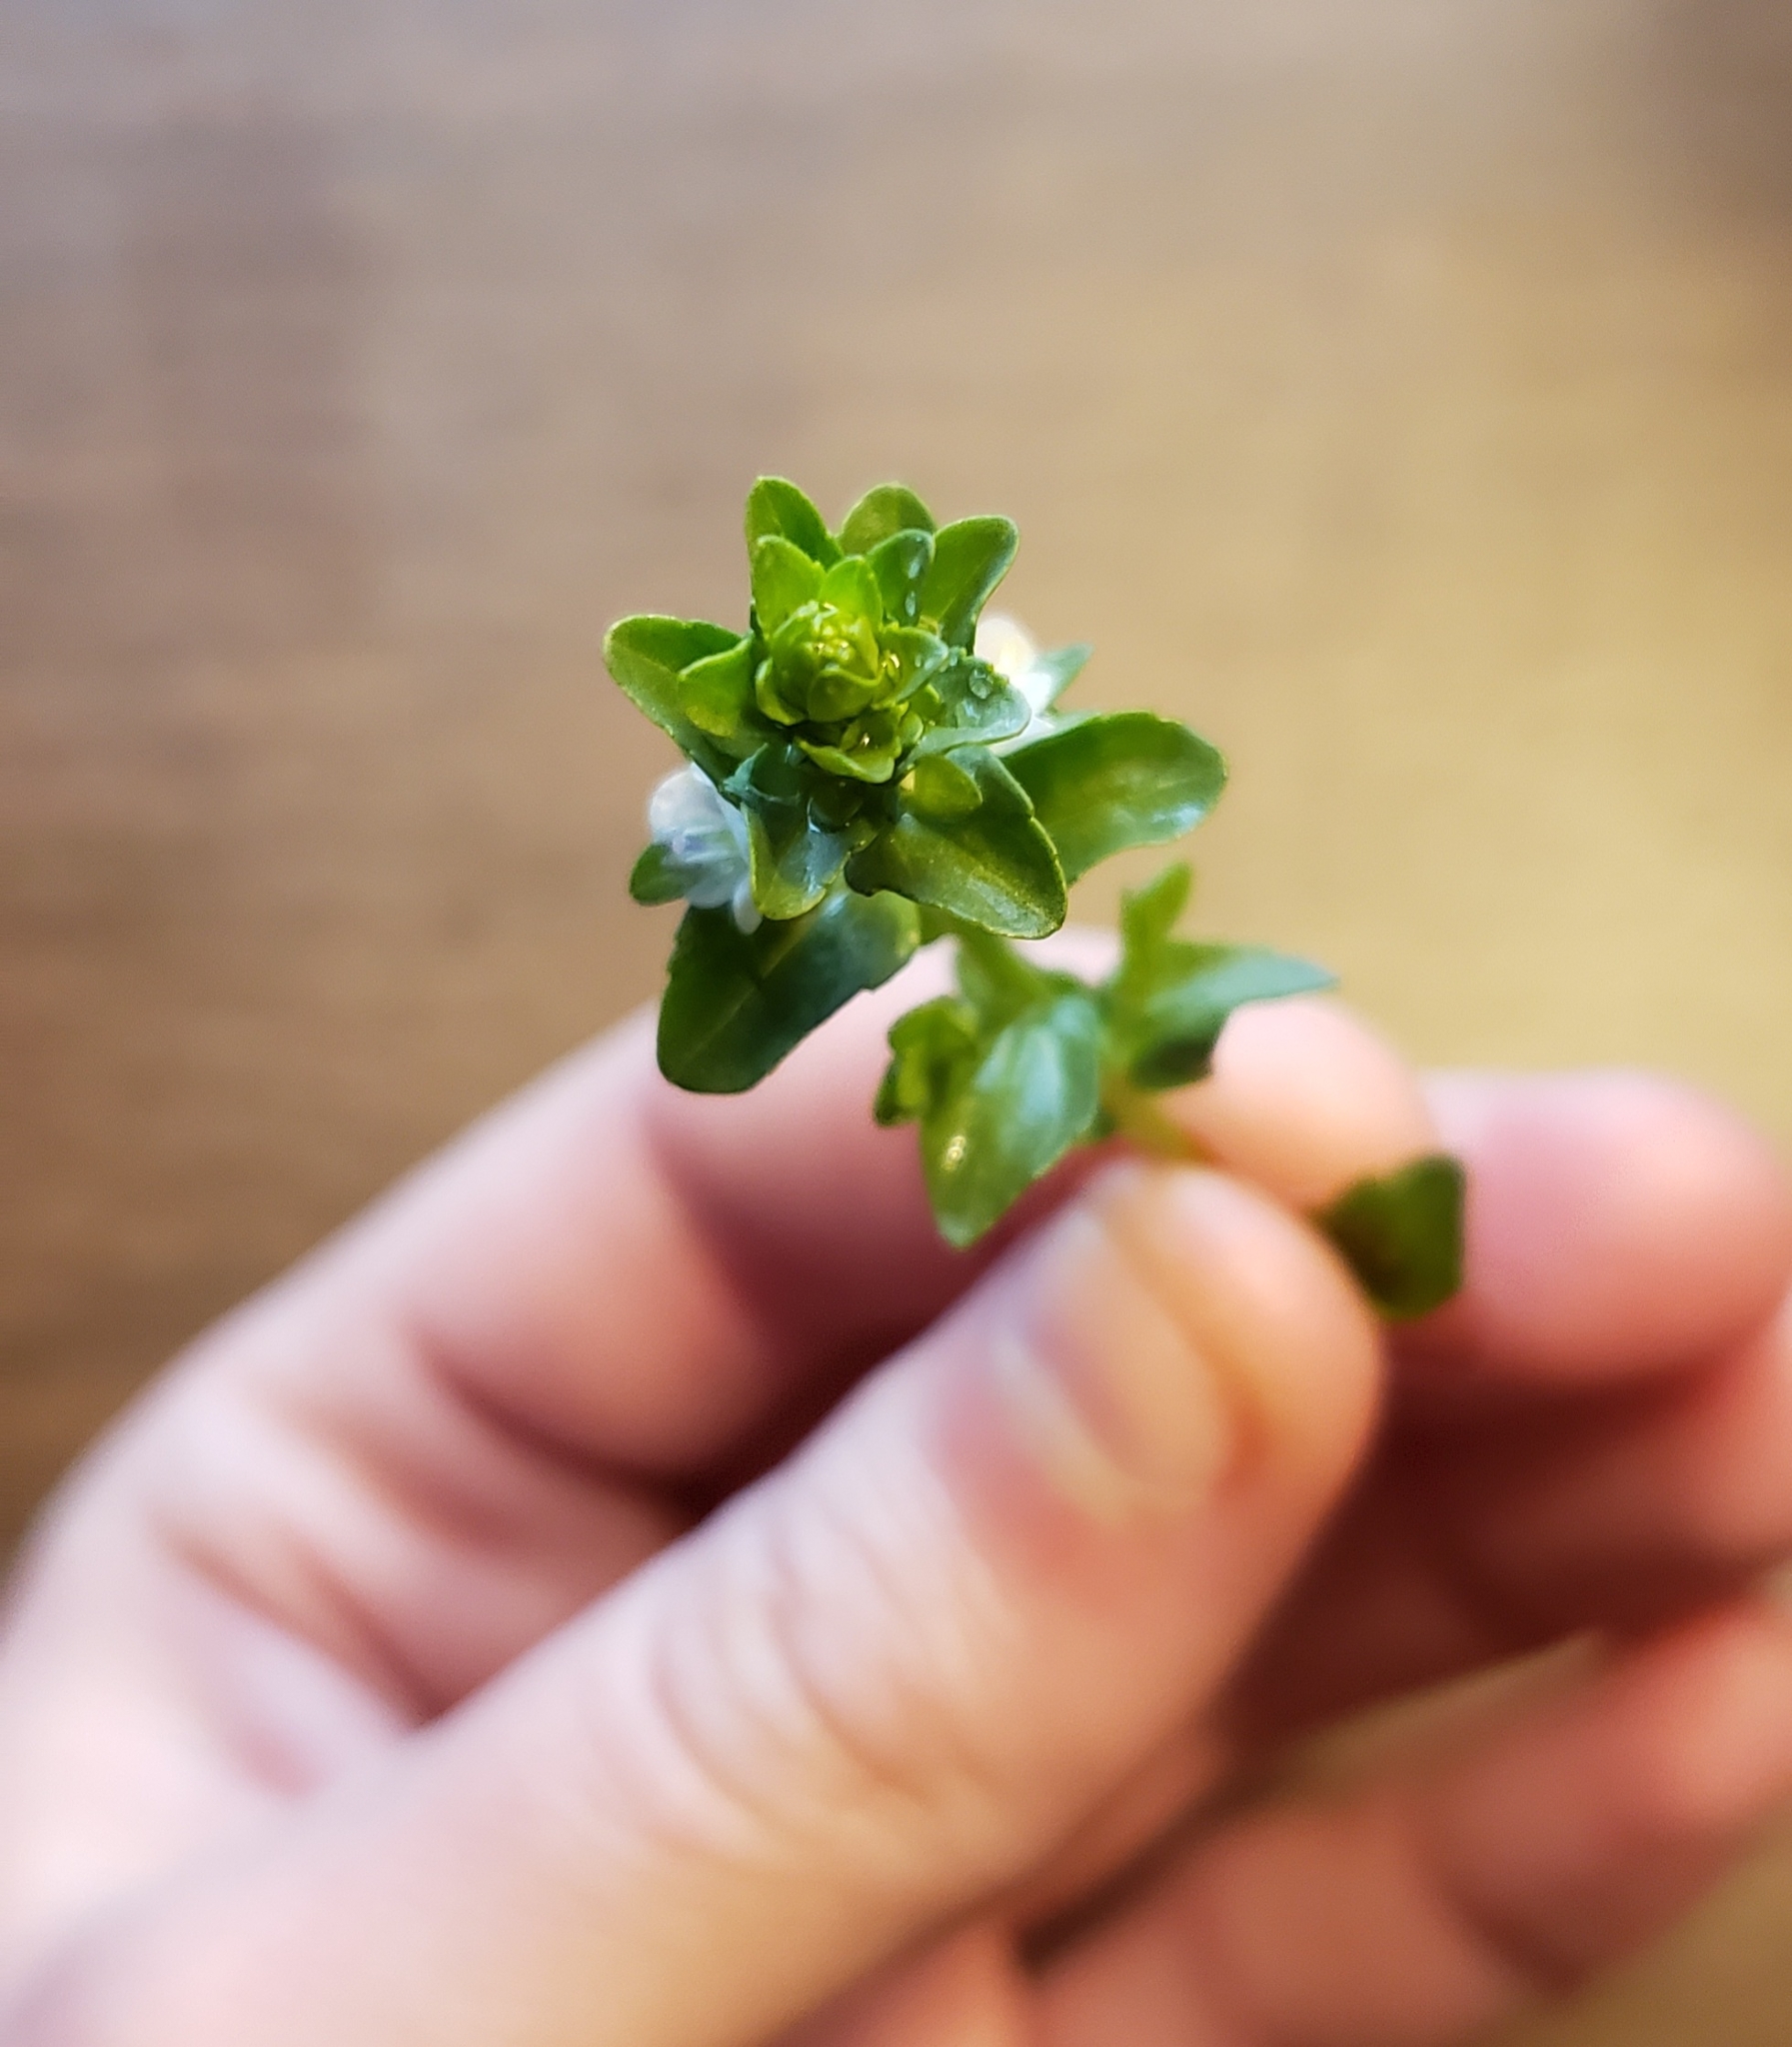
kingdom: Plantae
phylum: Tracheophyta
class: Magnoliopsida
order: Lamiales
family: Plantaginaceae
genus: Veronica
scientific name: Veronica serpyllifolia
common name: Thyme-leaved speedwell
